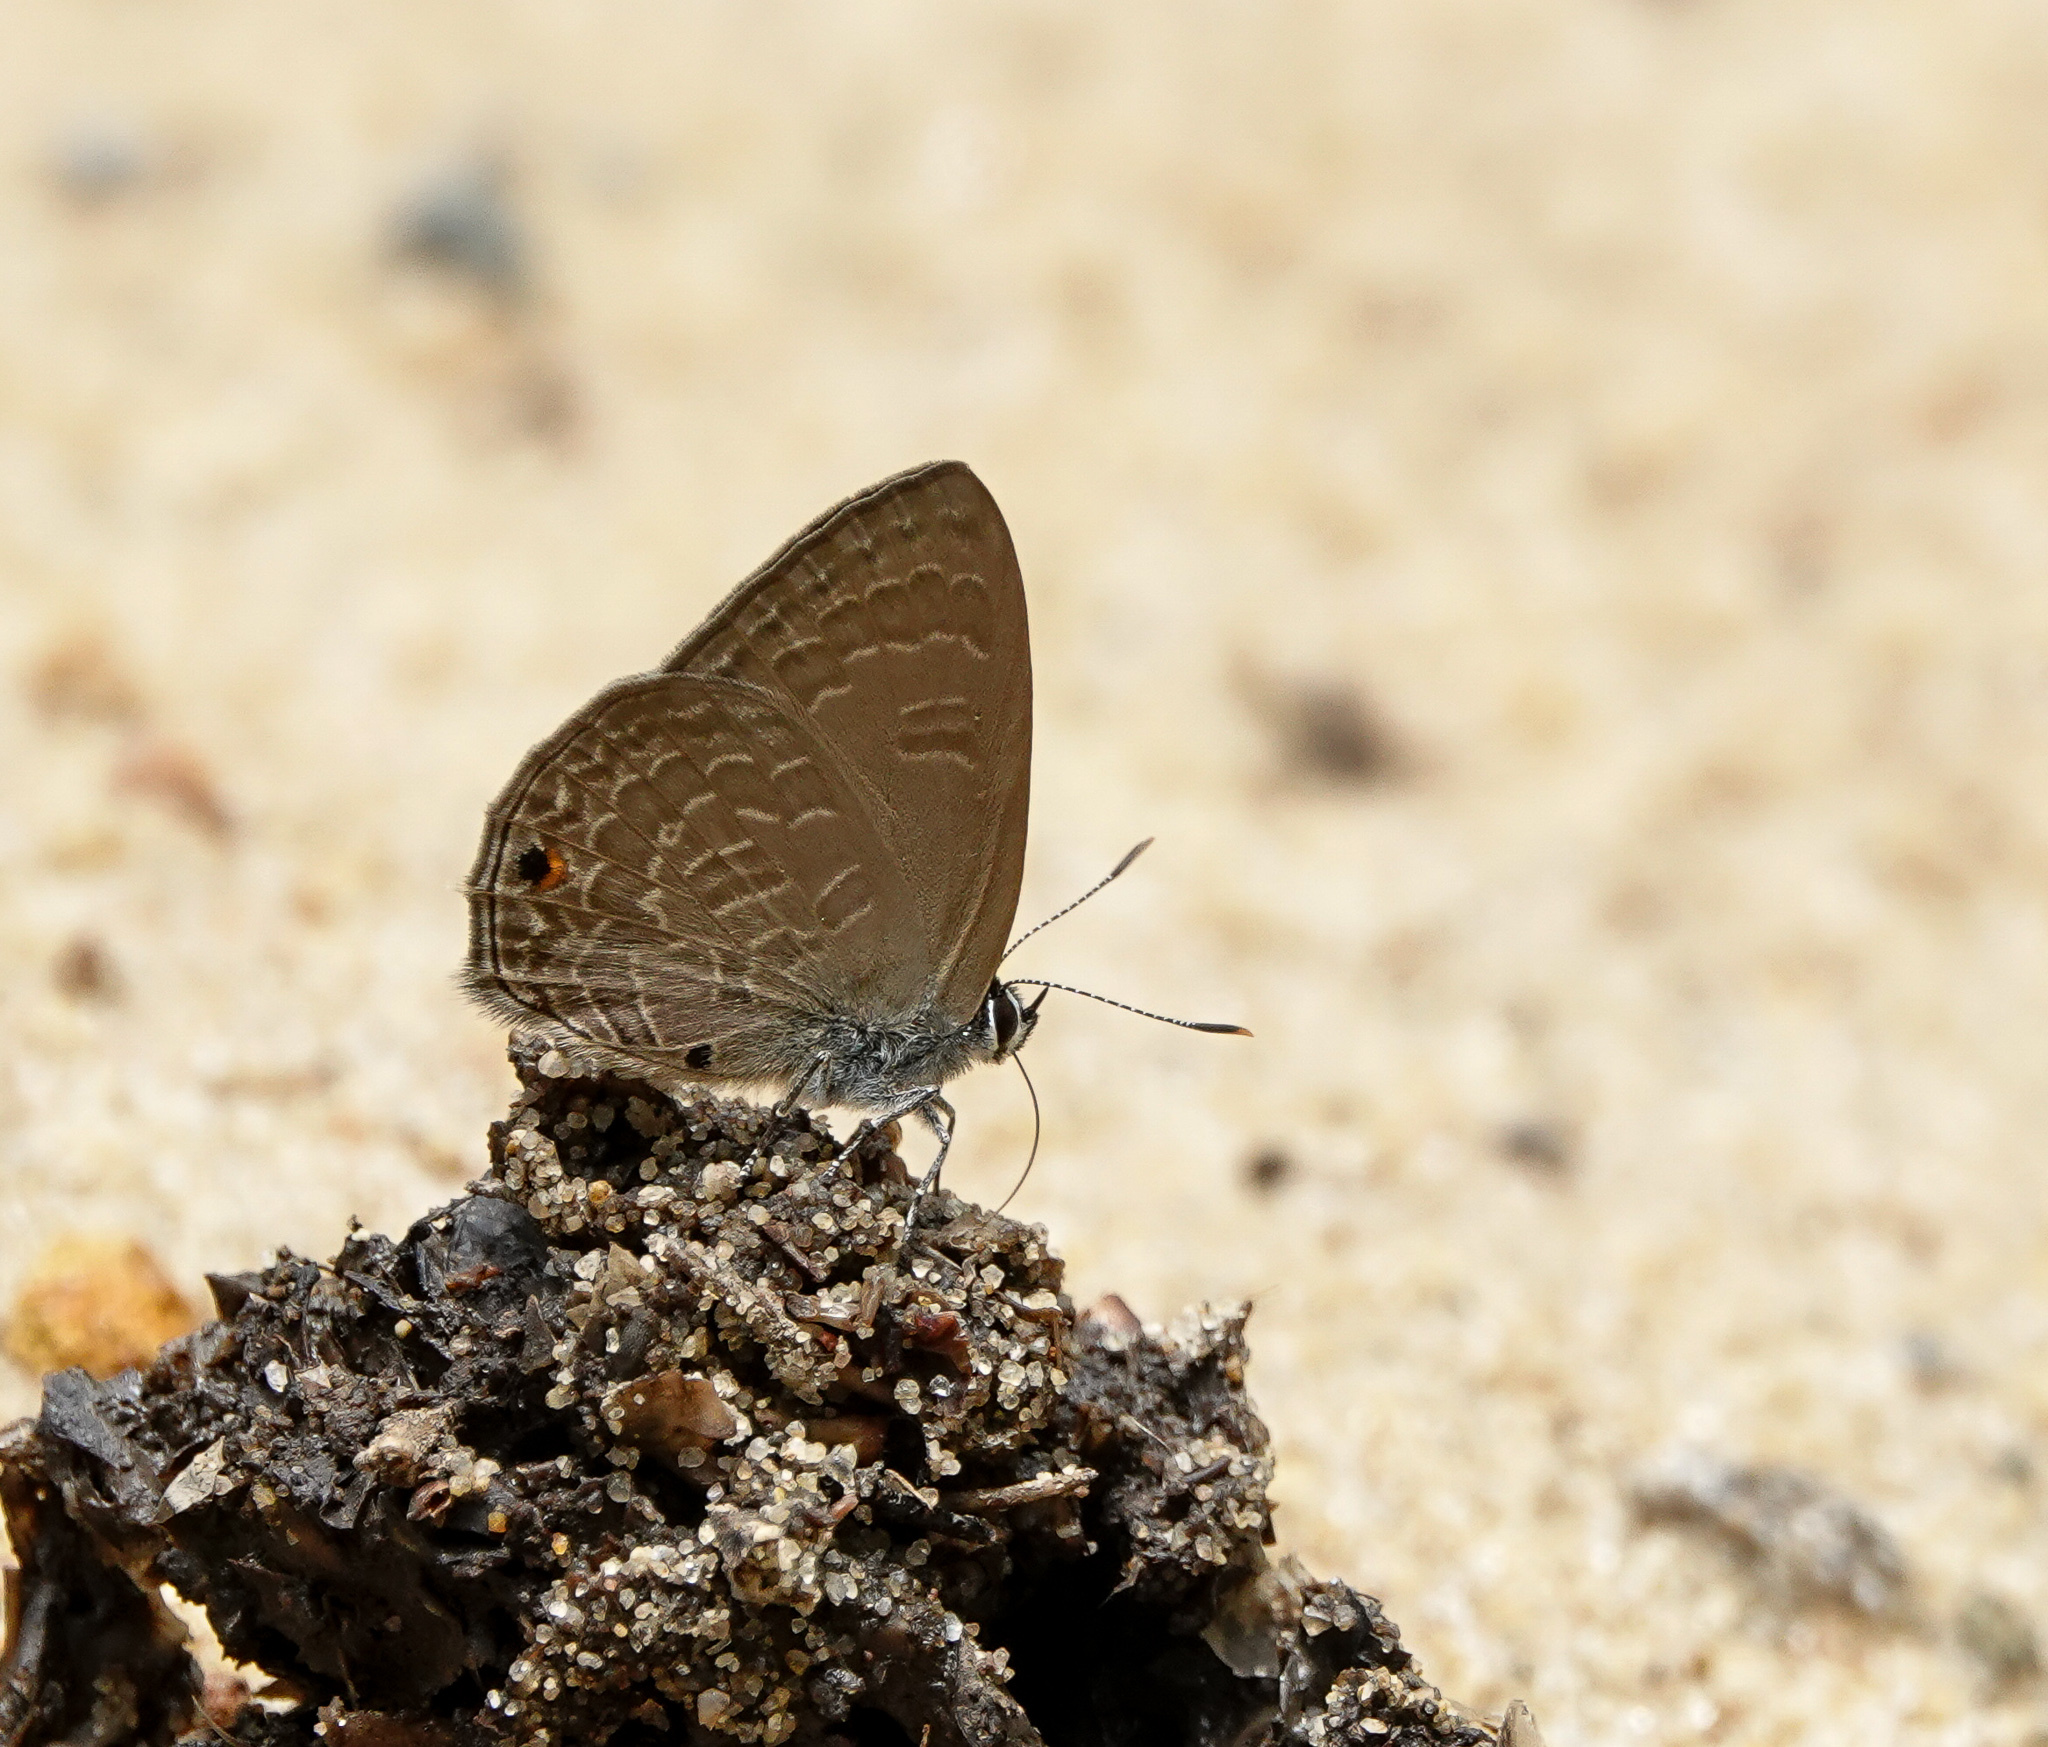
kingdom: Animalia
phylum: Arthropoda
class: Insecta
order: Lepidoptera
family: Lycaenidae
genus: Anthene
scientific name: Anthene emolus
